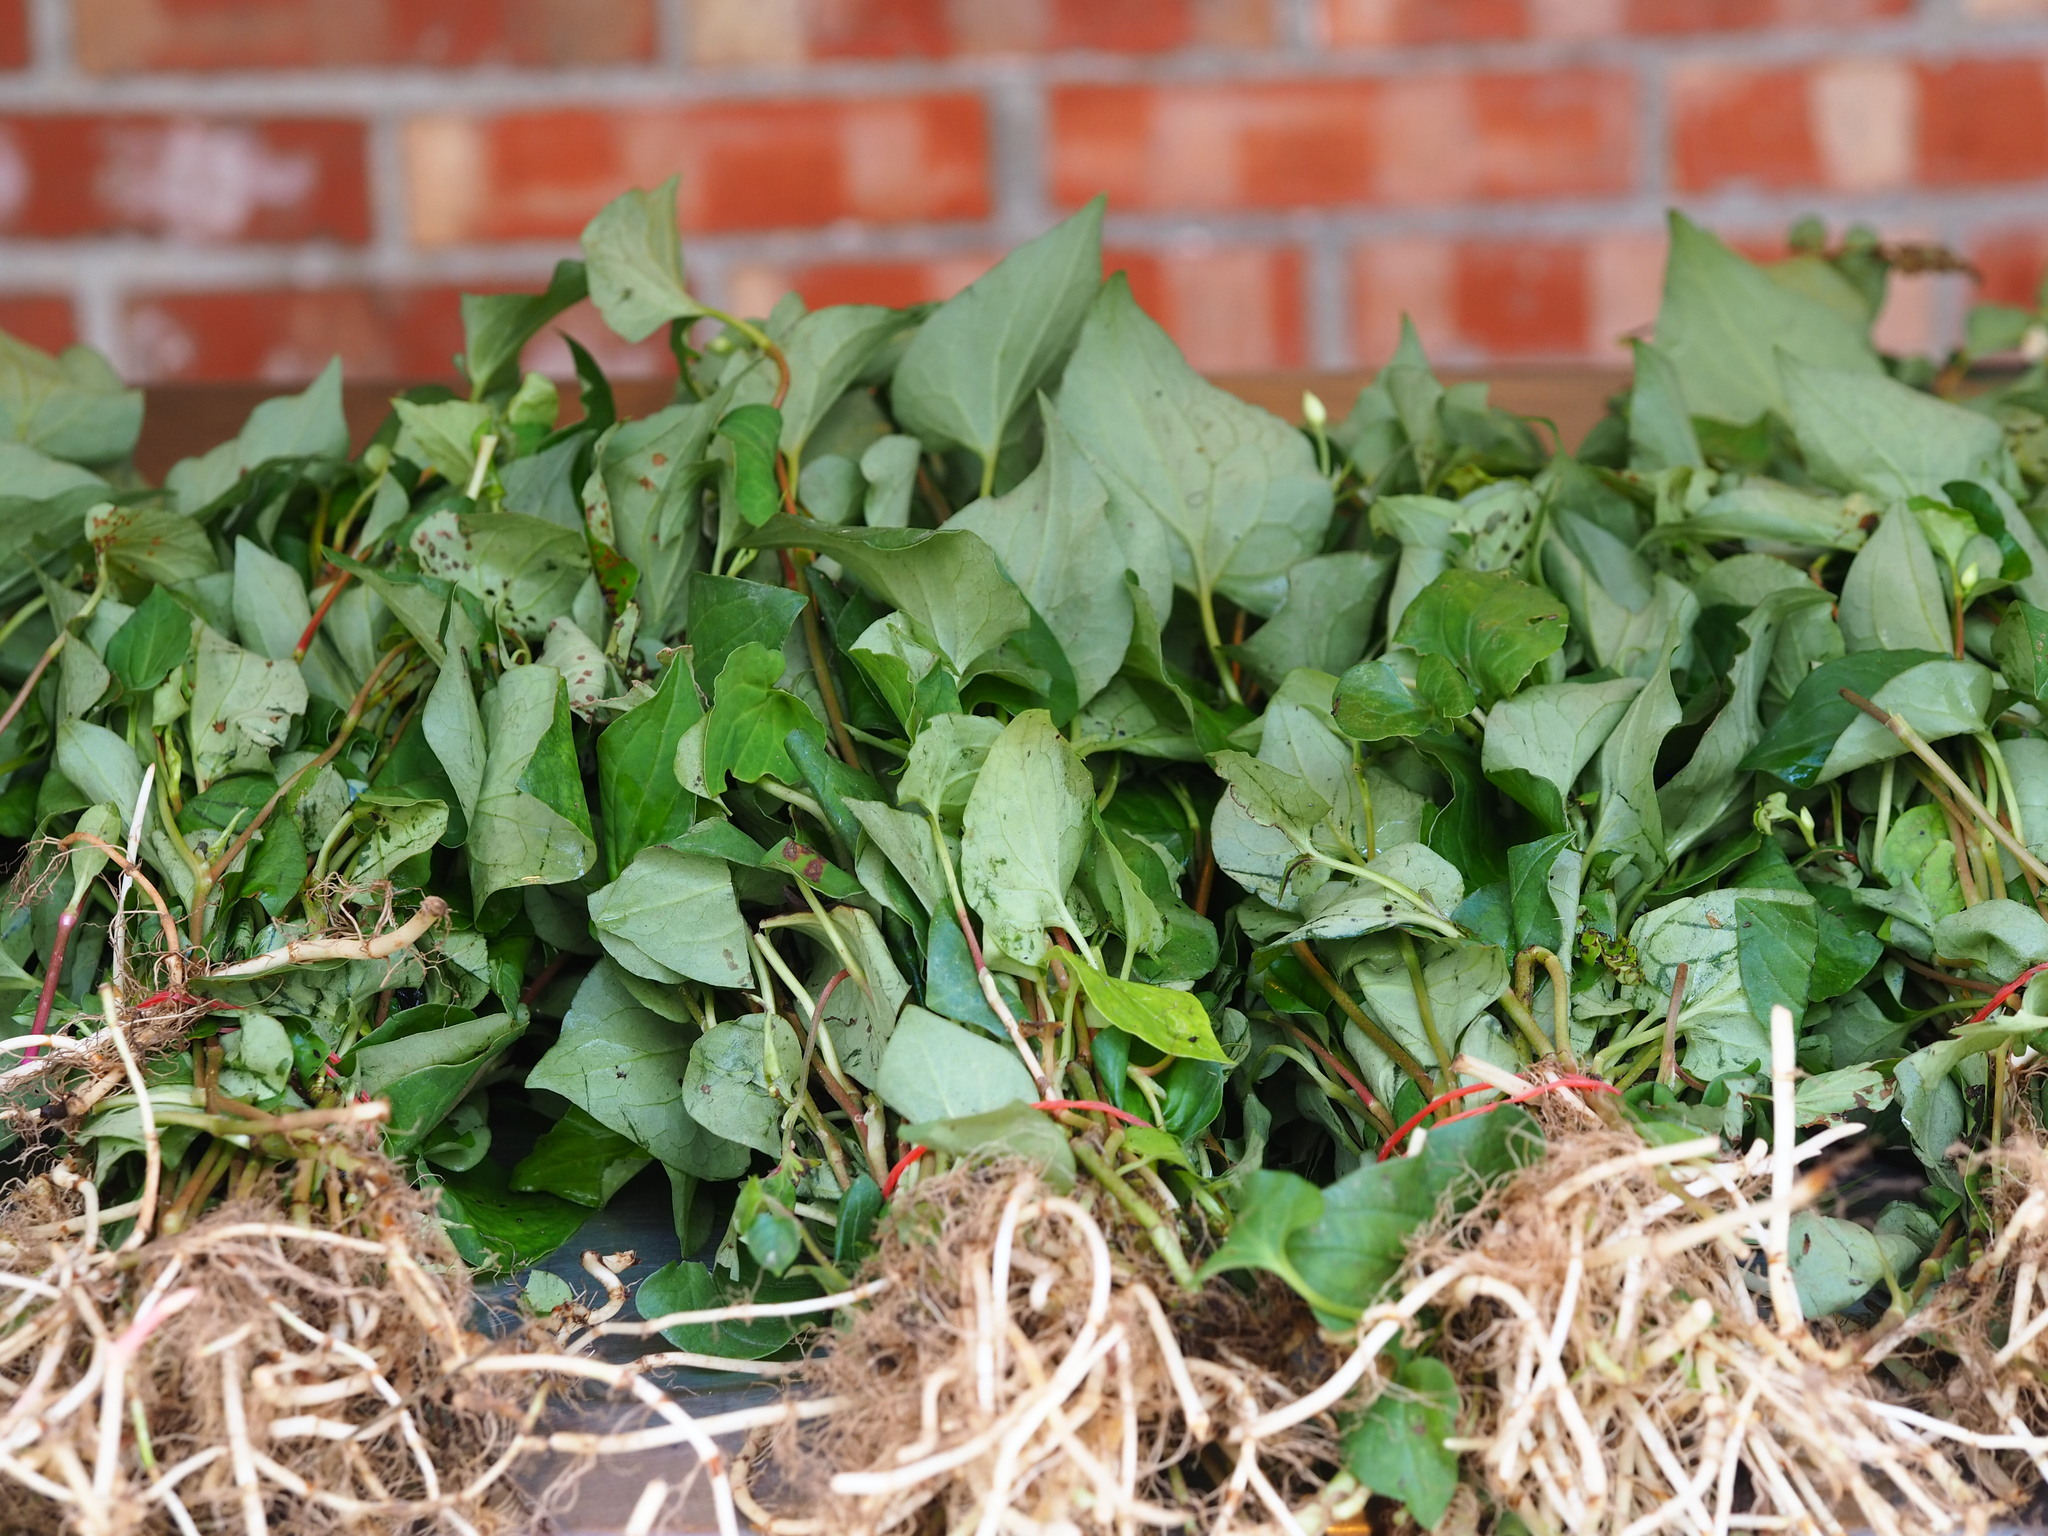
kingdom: Plantae
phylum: Tracheophyta
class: Magnoliopsida
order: Piperales
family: Saururaceae
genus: Houttuynia
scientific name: Houttuynia cordata
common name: Chameleon
